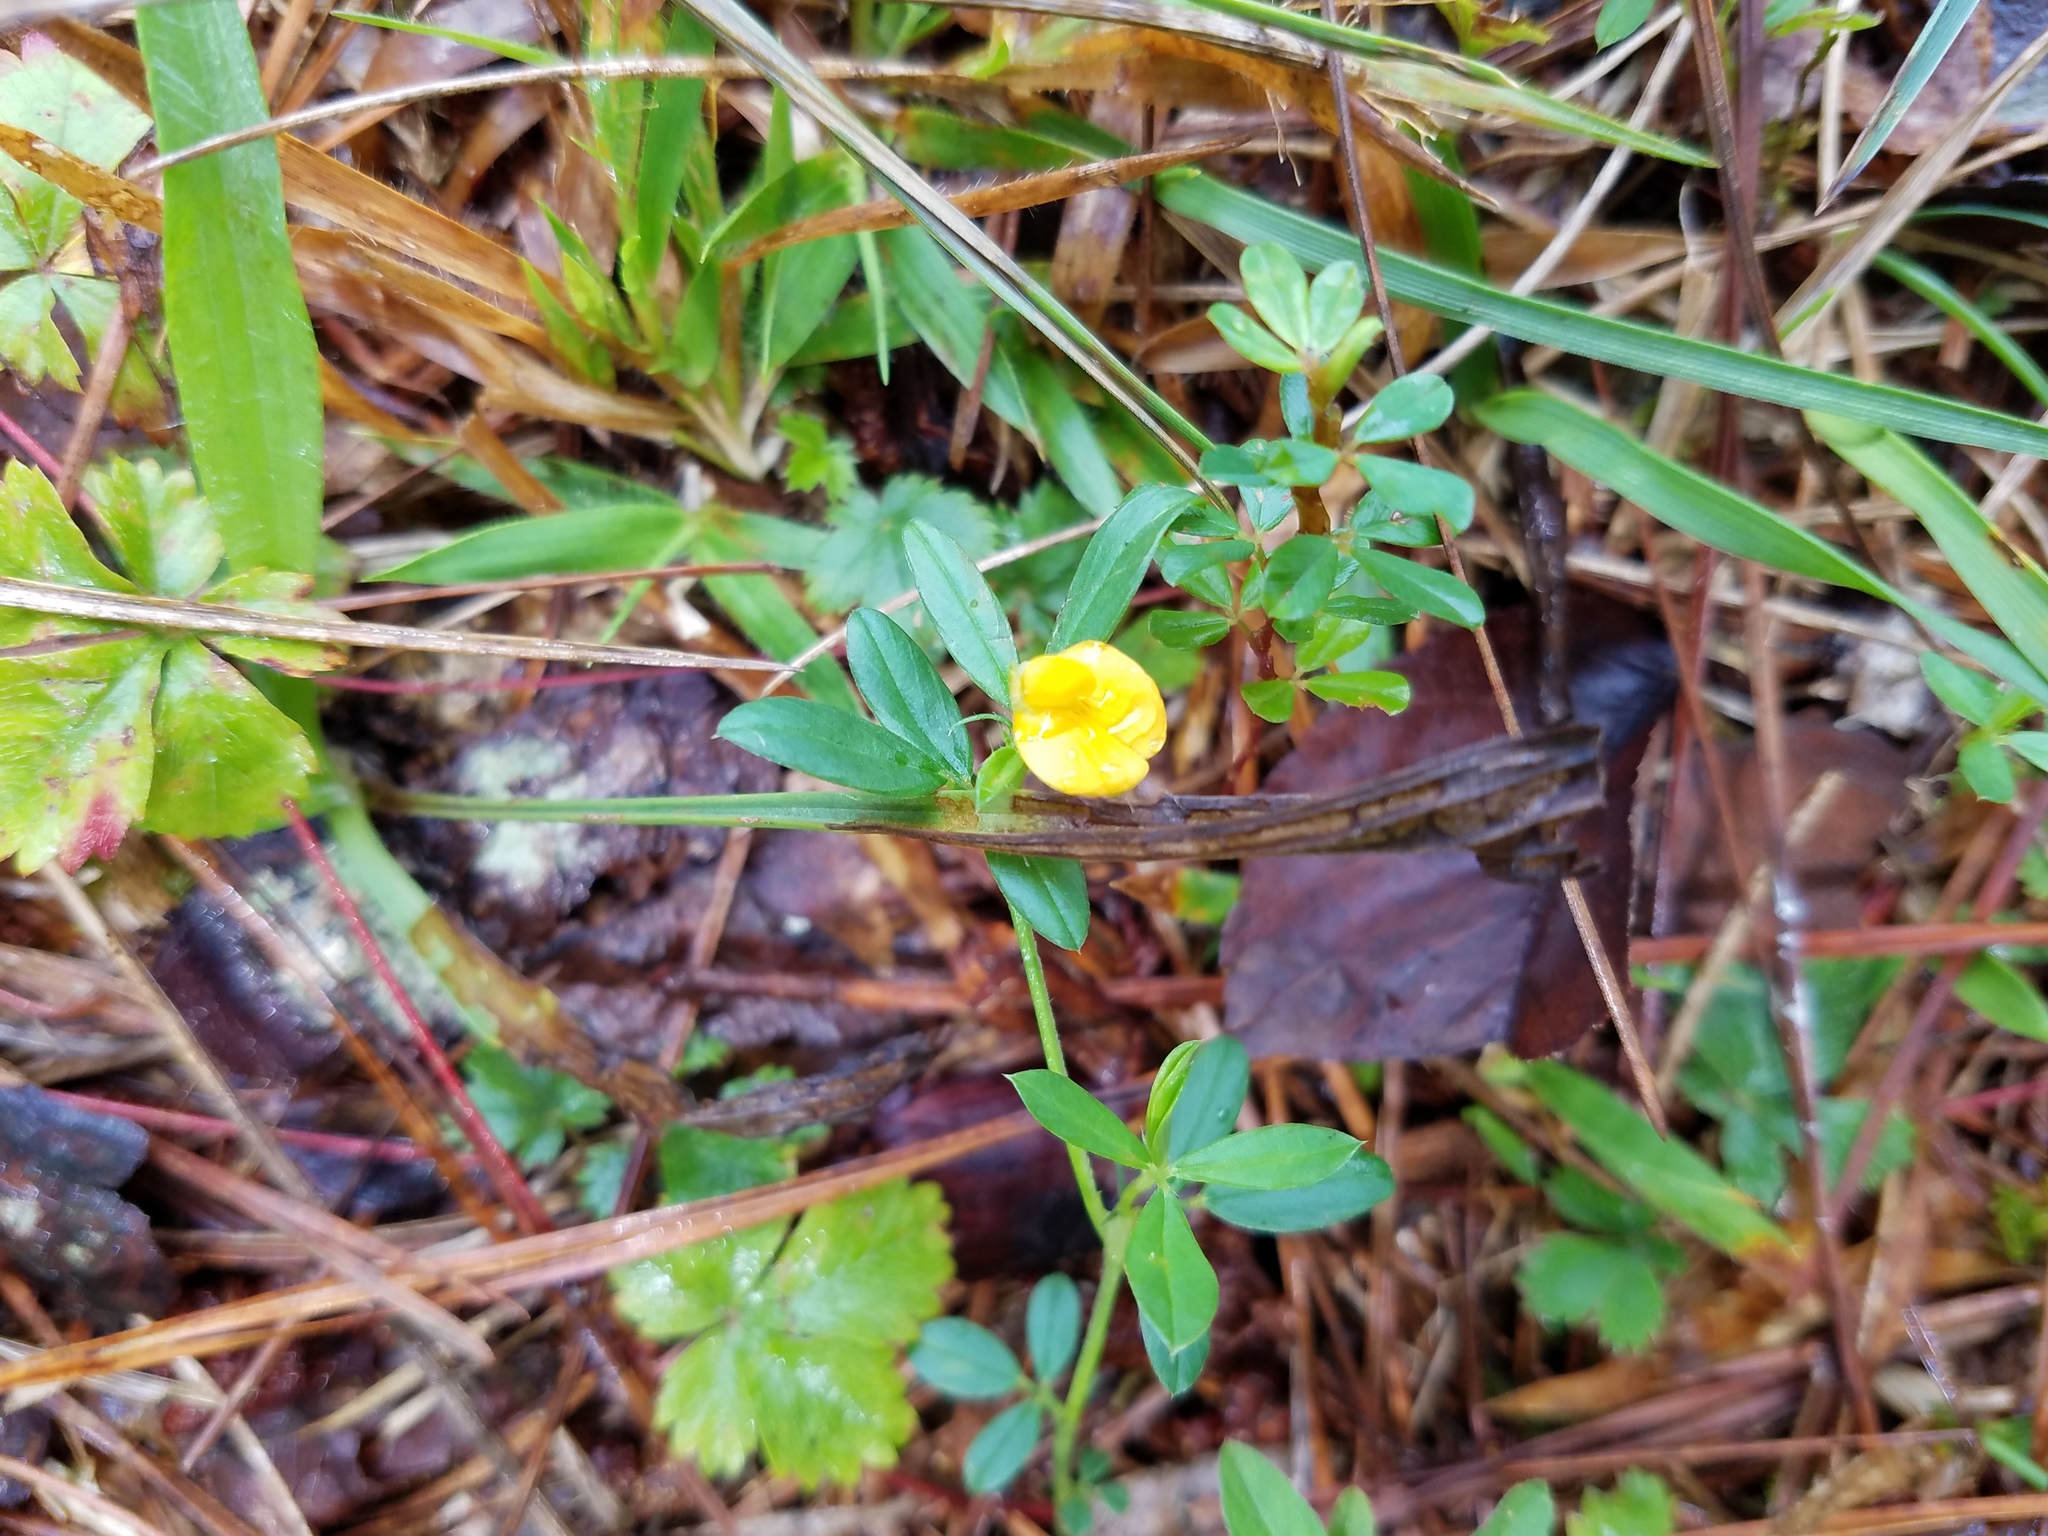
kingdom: Plantae
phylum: Tracheophyta
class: Magnoliopsida
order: Fabales
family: Fabaceae
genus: Stylosanthes
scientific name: Stylosanthes biflora
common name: Two-flower pencil-flower
